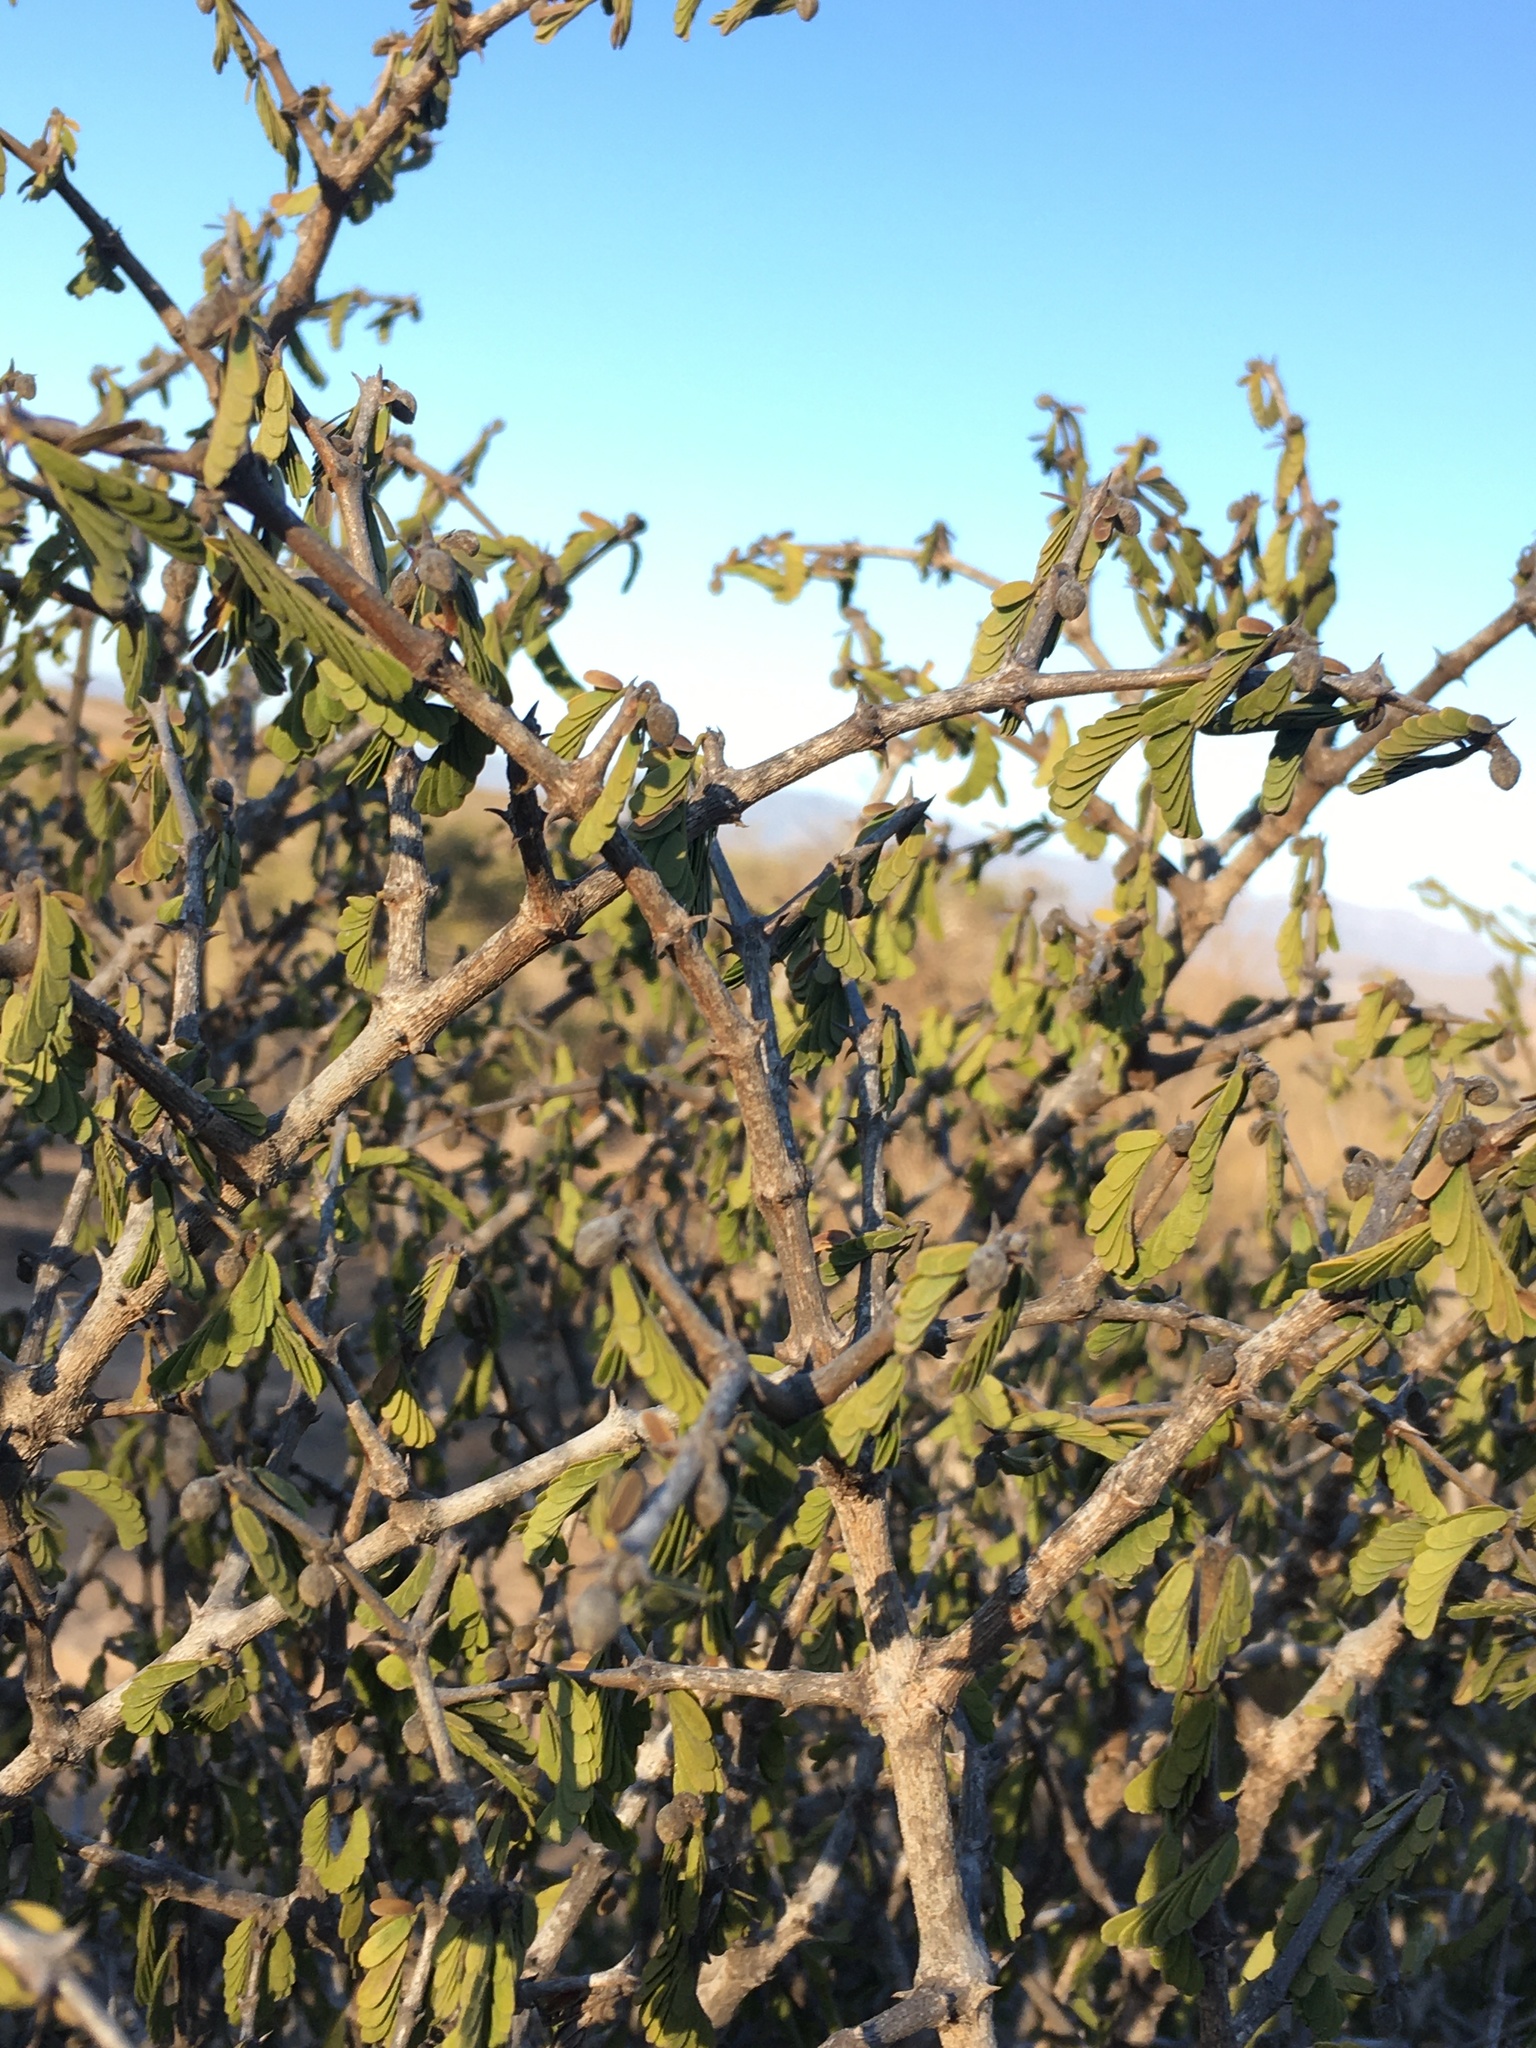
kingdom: Plantae
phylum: Tracheophyta
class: Magnoliopsida
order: Zygophyllales
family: Zygophyllaceae
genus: Porlieria
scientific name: Porlieria chilensis
